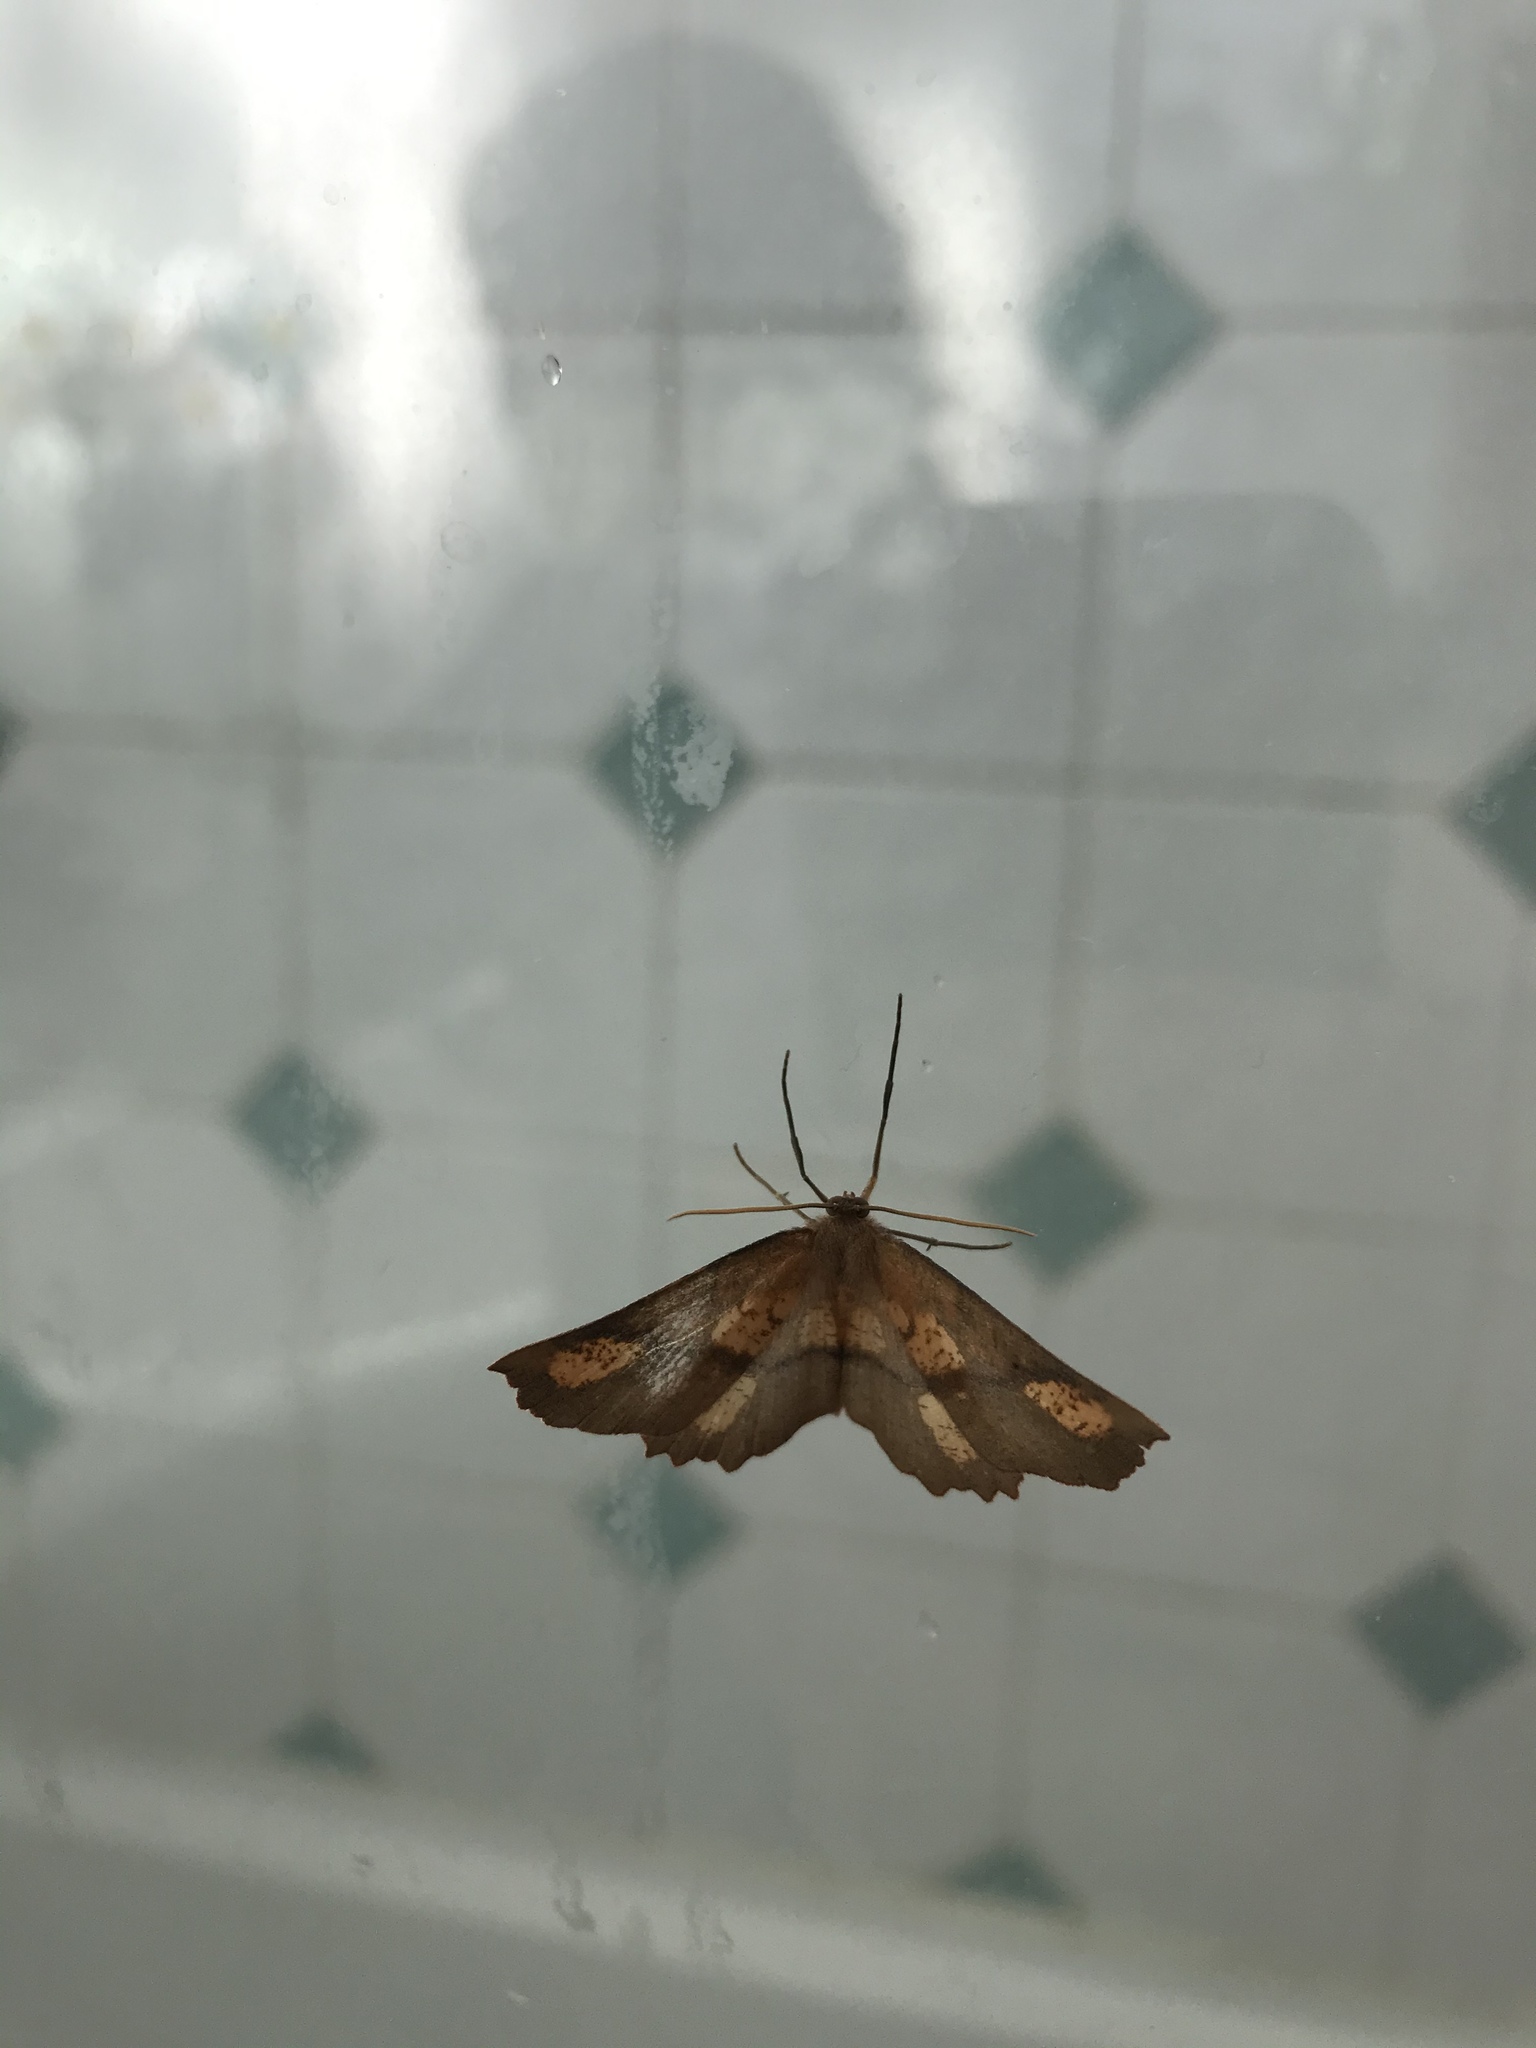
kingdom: Animalia
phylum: Arthropoda
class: Insecta
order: Lepidoptera
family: Geometridae
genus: Xyridacma
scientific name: Xyridacma ustaria
